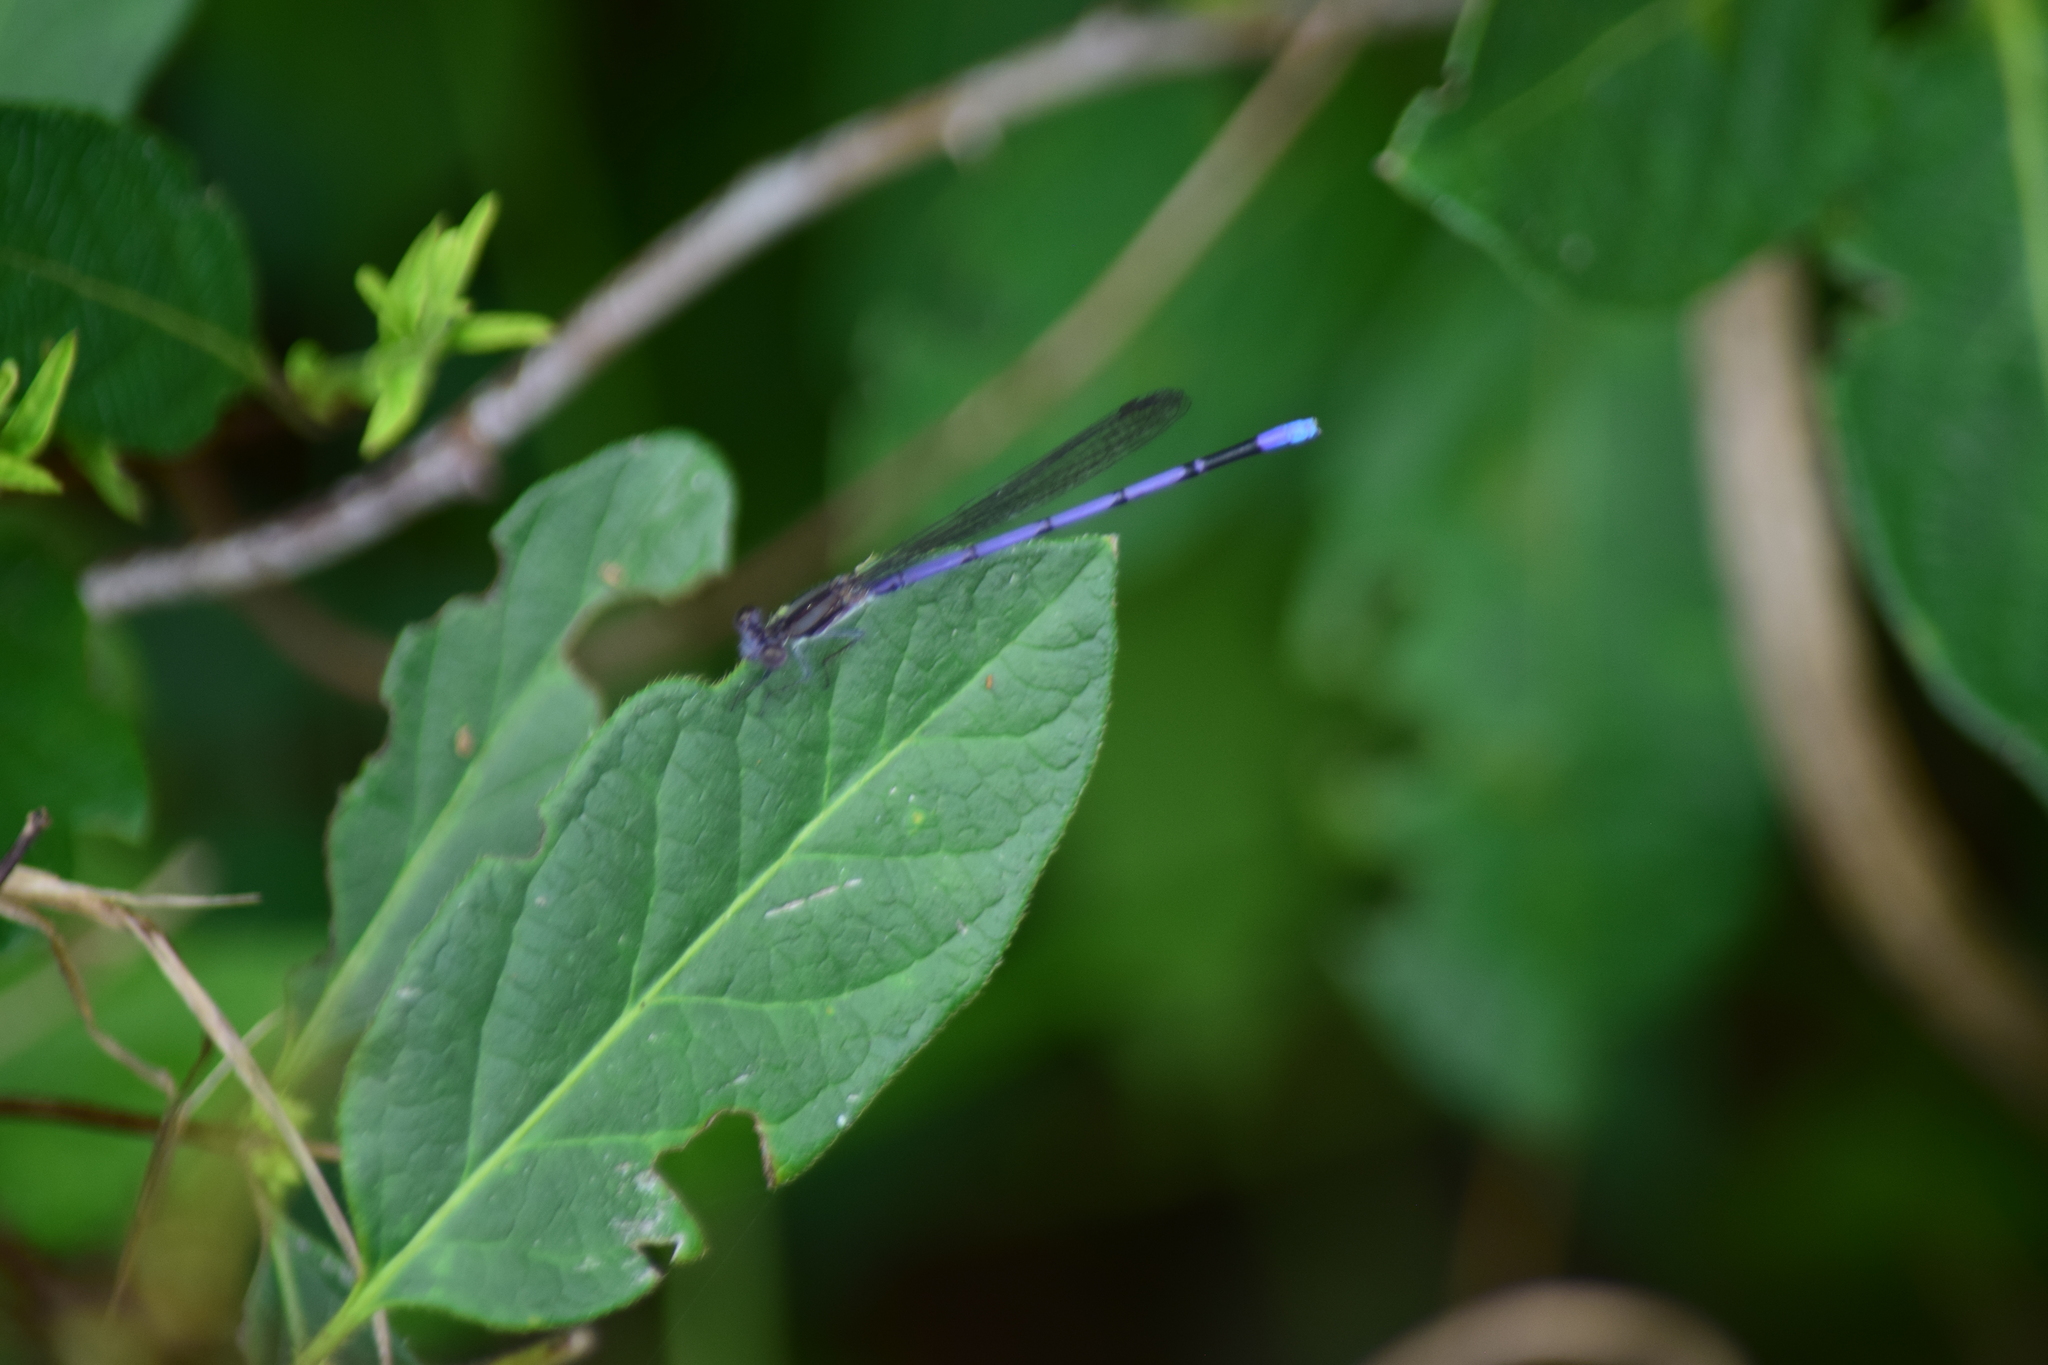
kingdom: Animalia
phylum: Arthropoda
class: Insecta
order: Odonata
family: Coenagrionidae
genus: Argia
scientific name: Argia fumipennis
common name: Variable dancer
